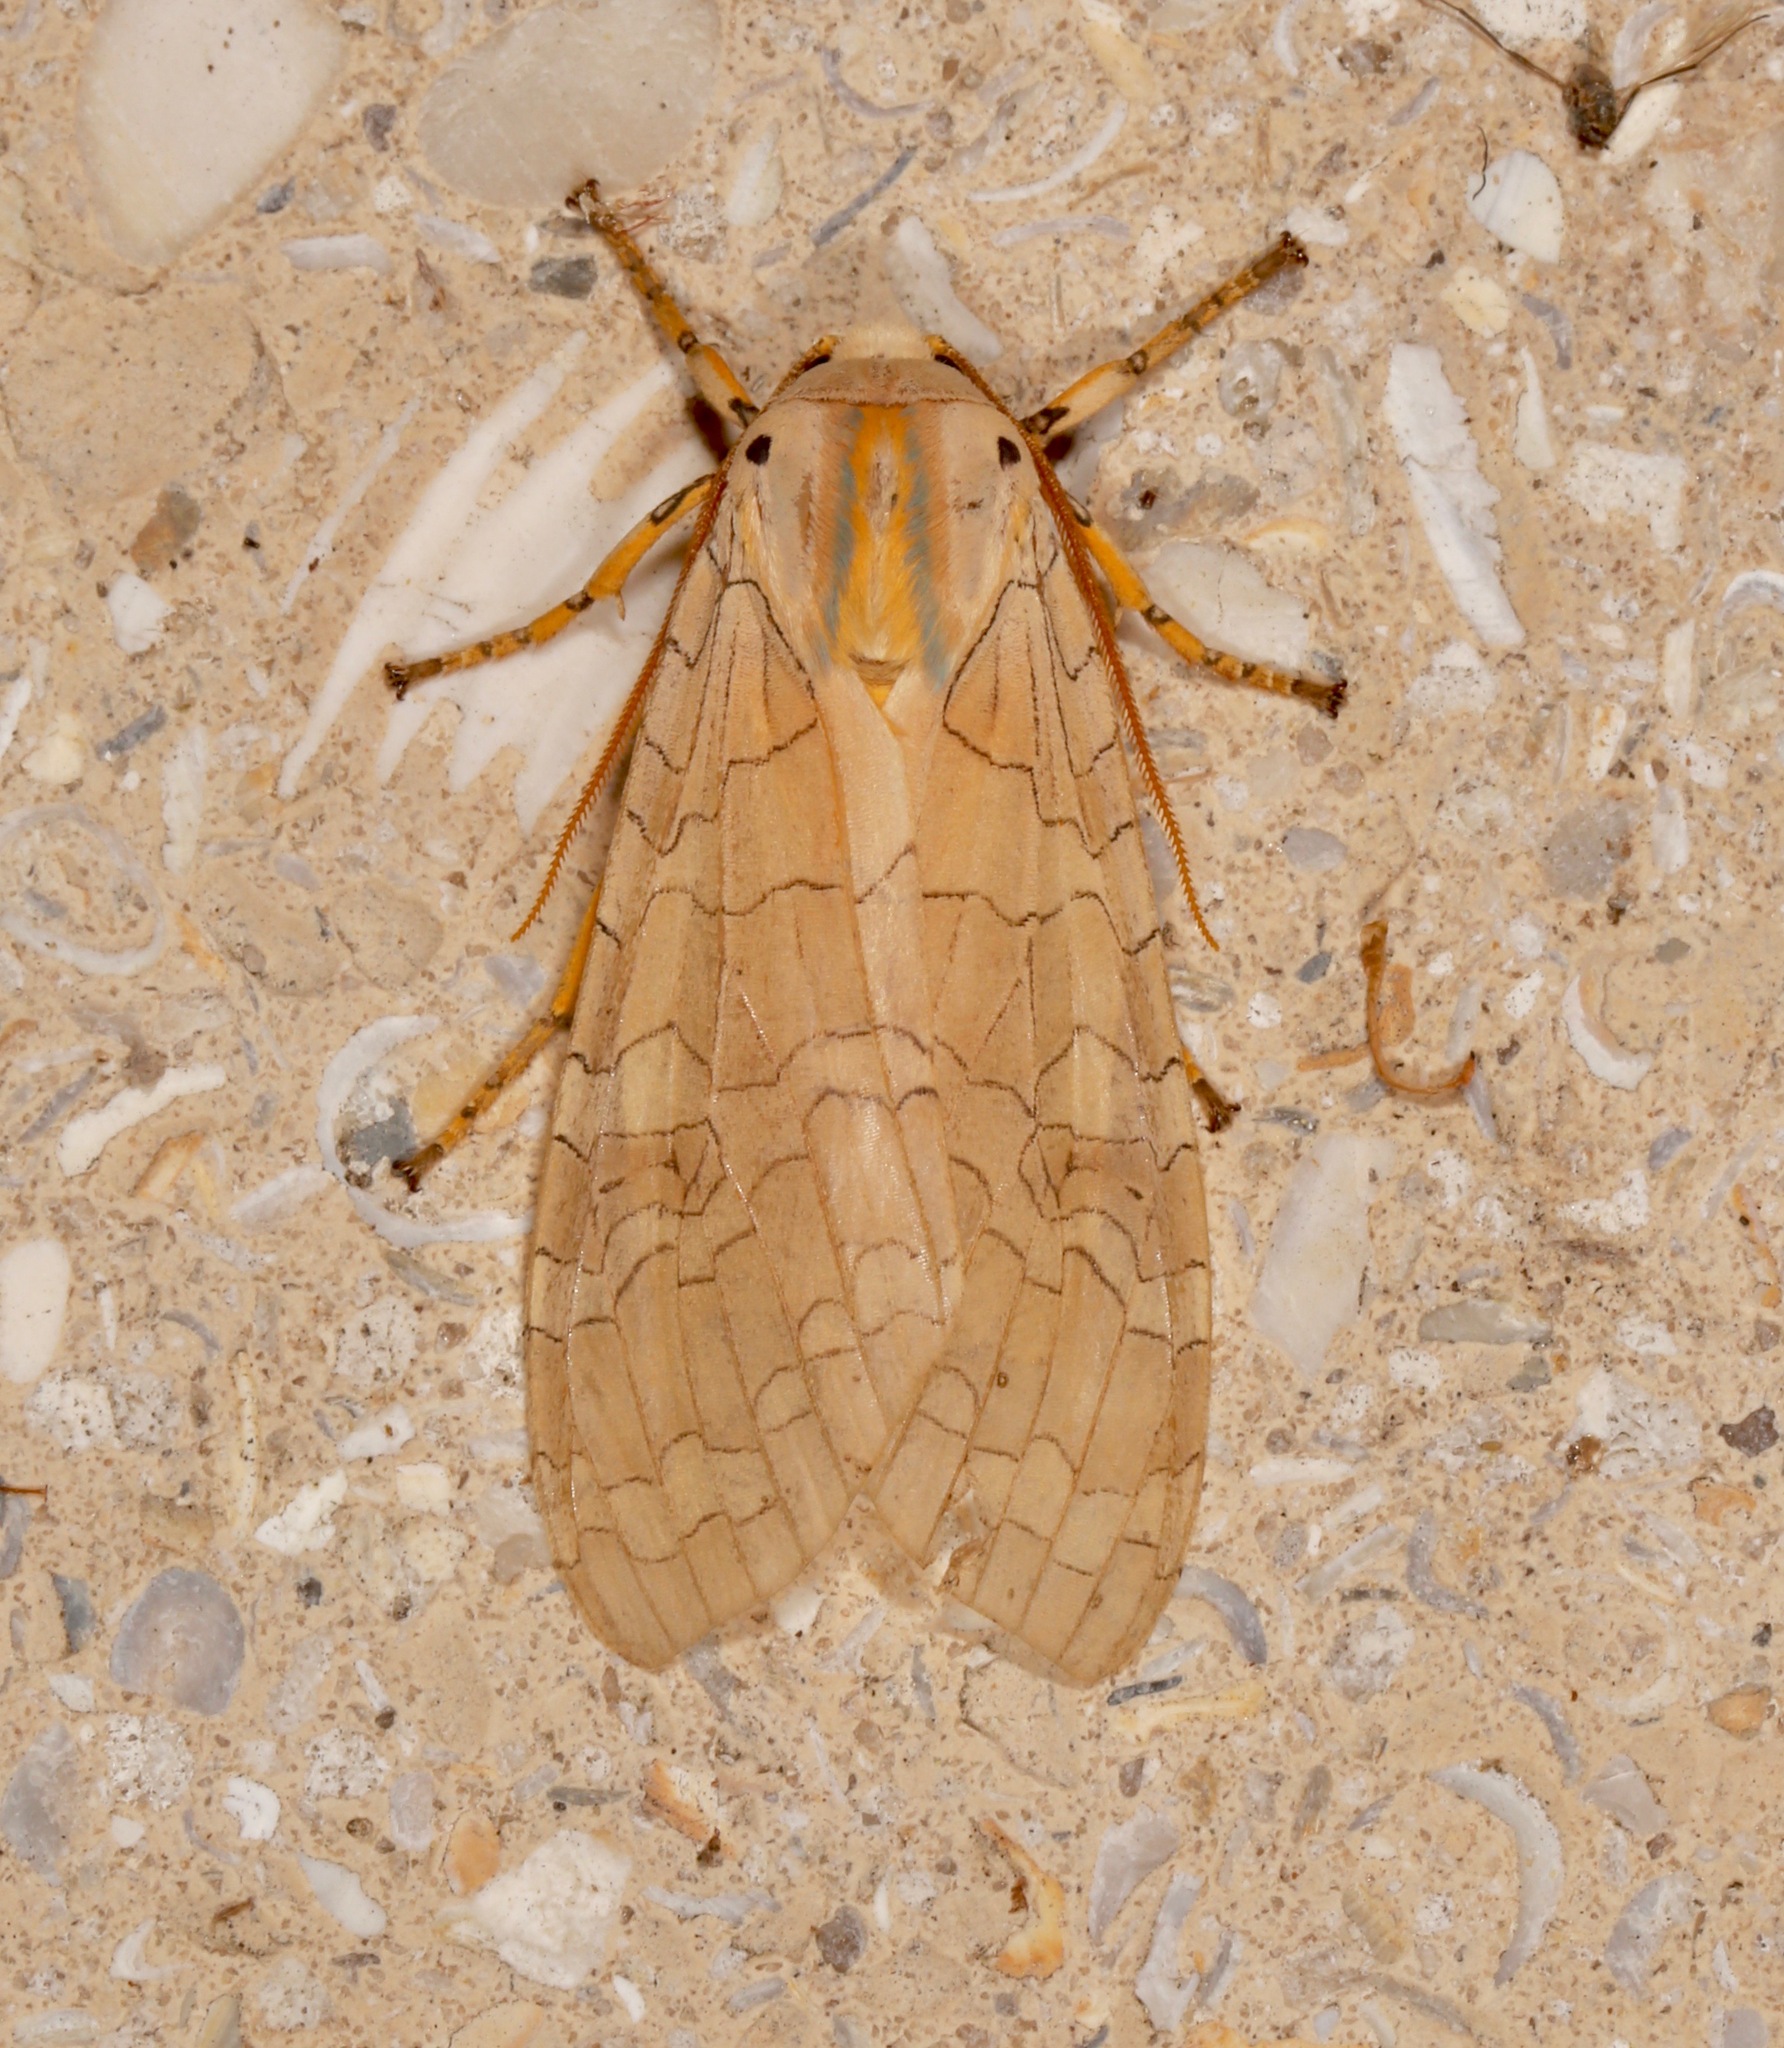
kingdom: Animalia
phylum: Arthropoda
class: Insecta
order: Lepidoptera
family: Erebidae
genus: Halysidota
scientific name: Halysidota
